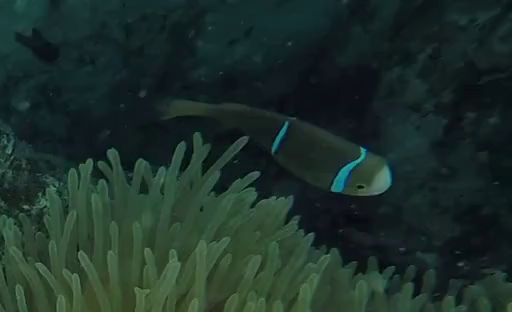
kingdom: Animalia
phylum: Chordata
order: Perciformes
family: Pomacentridae
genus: Amphiprion
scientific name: Amphiprion chrysopterus
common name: Orange-fin anemonefish
